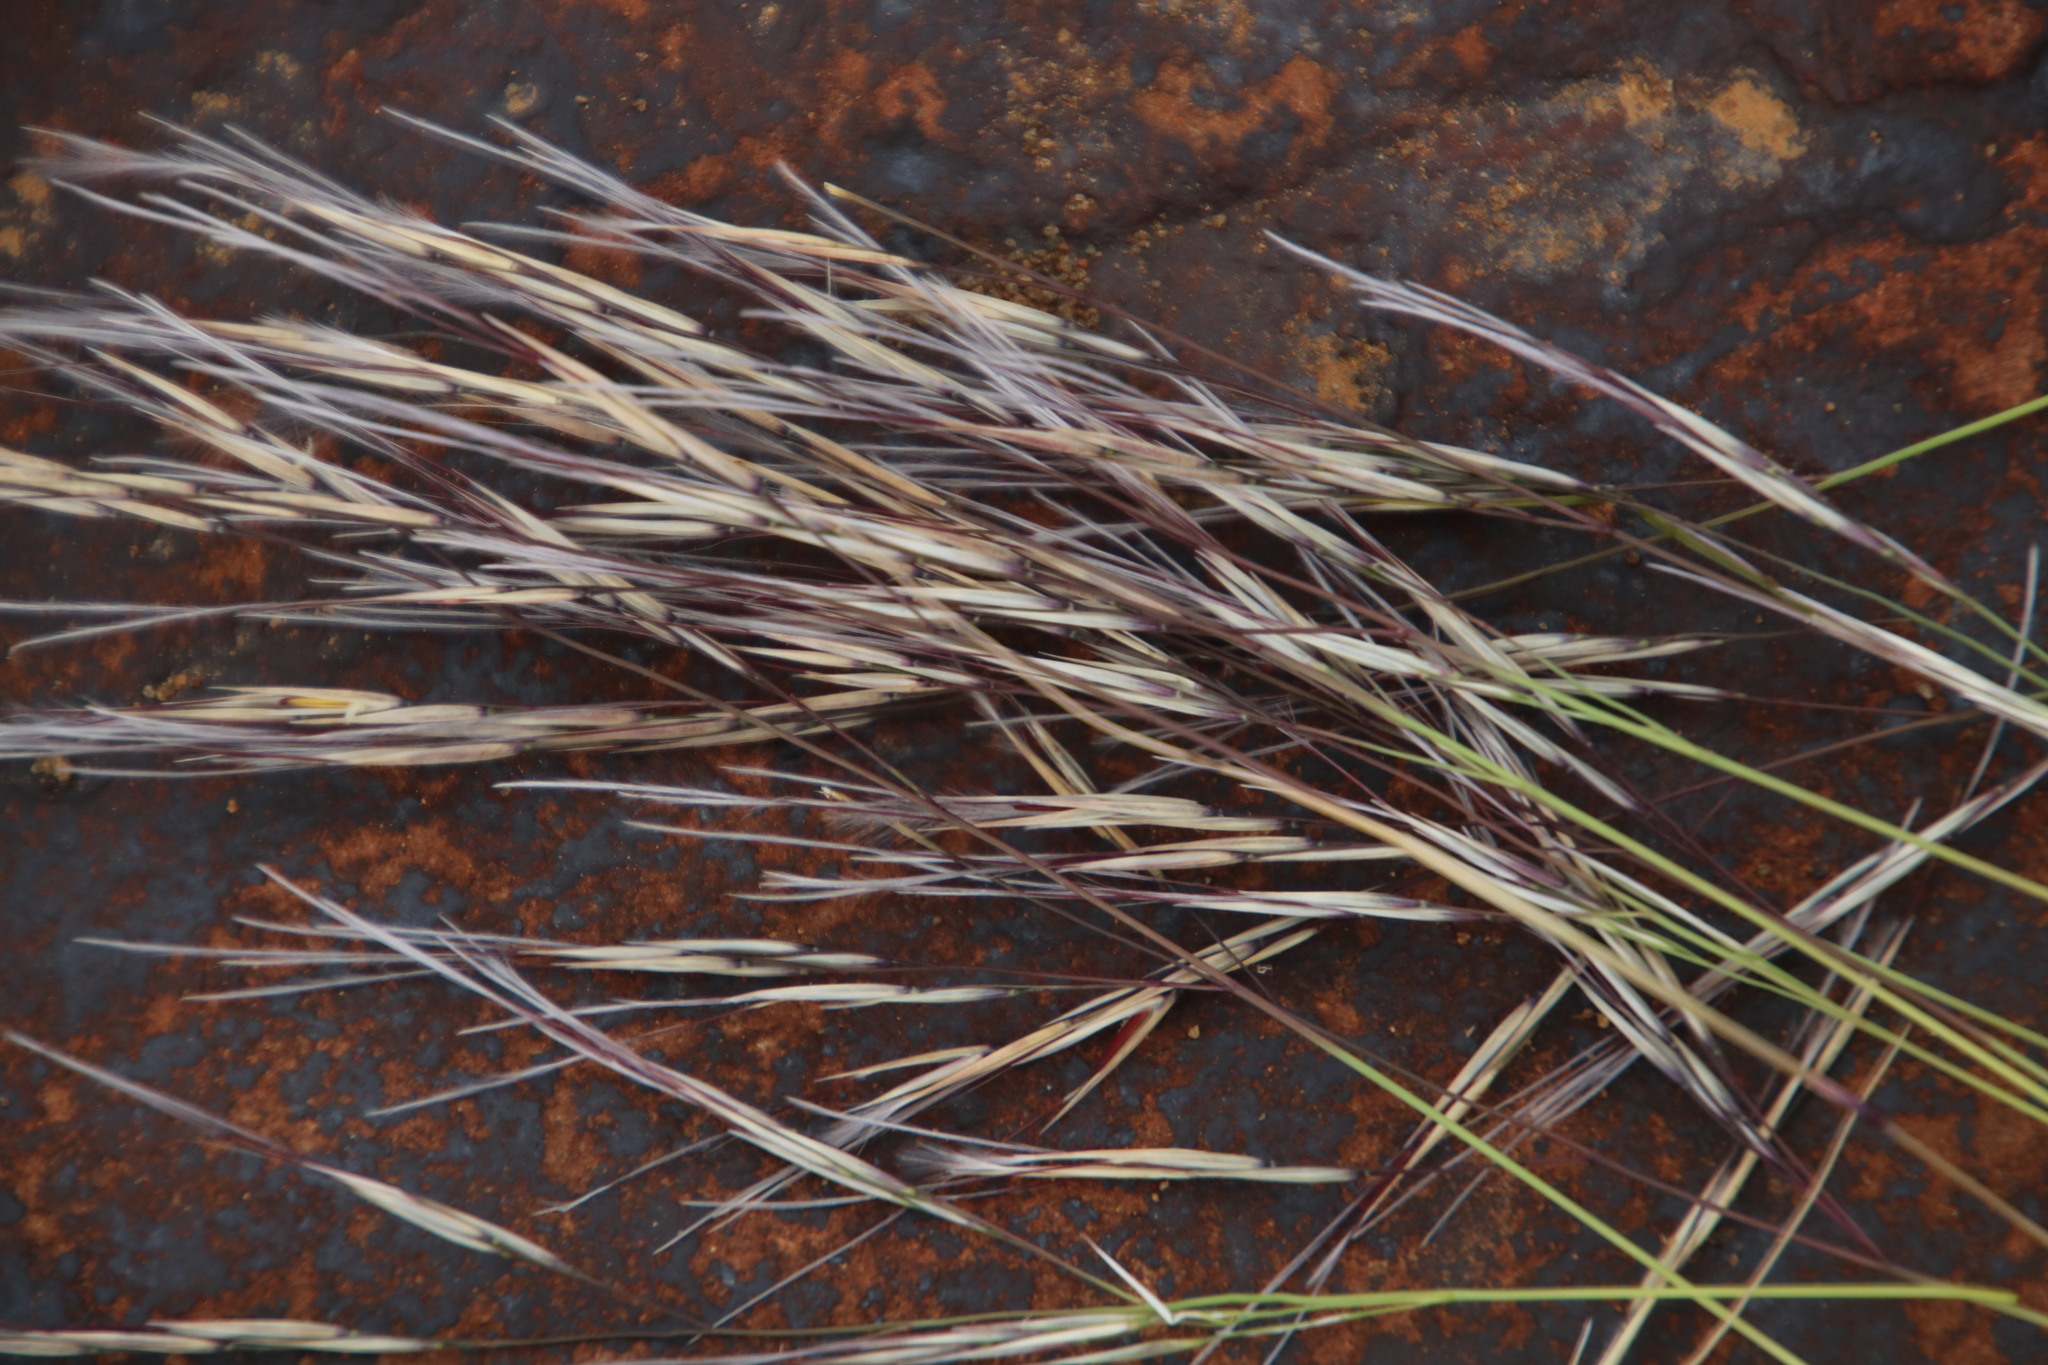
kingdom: Plantae
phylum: Tracheophyta
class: Liliopsida
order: Poales
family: Poaceae
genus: Stipagrostis
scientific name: Stipagrostis ciliata
